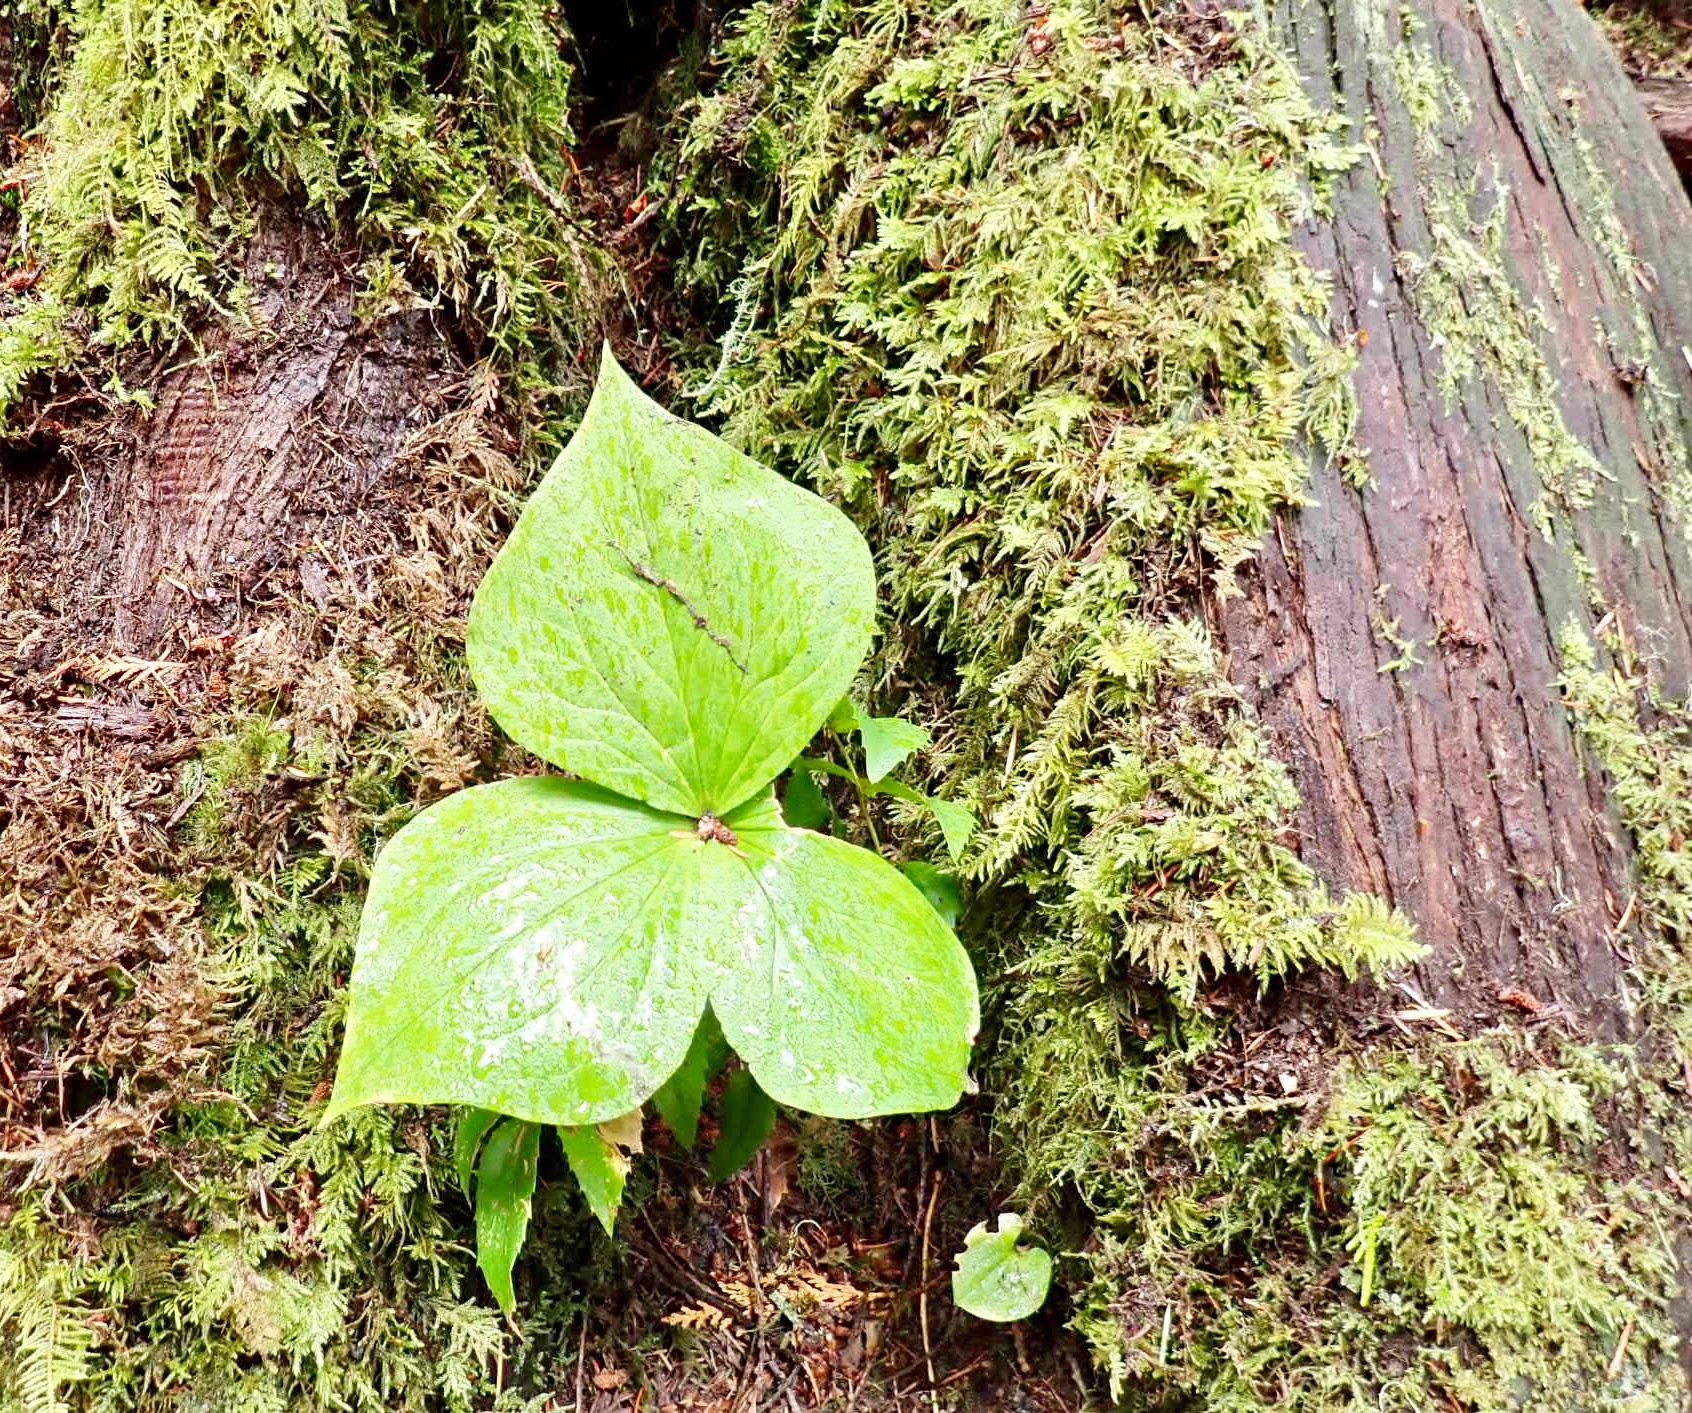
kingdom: Plantae
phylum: Tracheophyta
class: Liliopsida
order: Liliales
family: Melanthiaceae
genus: Trillium
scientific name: Trillium ovatum
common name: Pacific trillium
